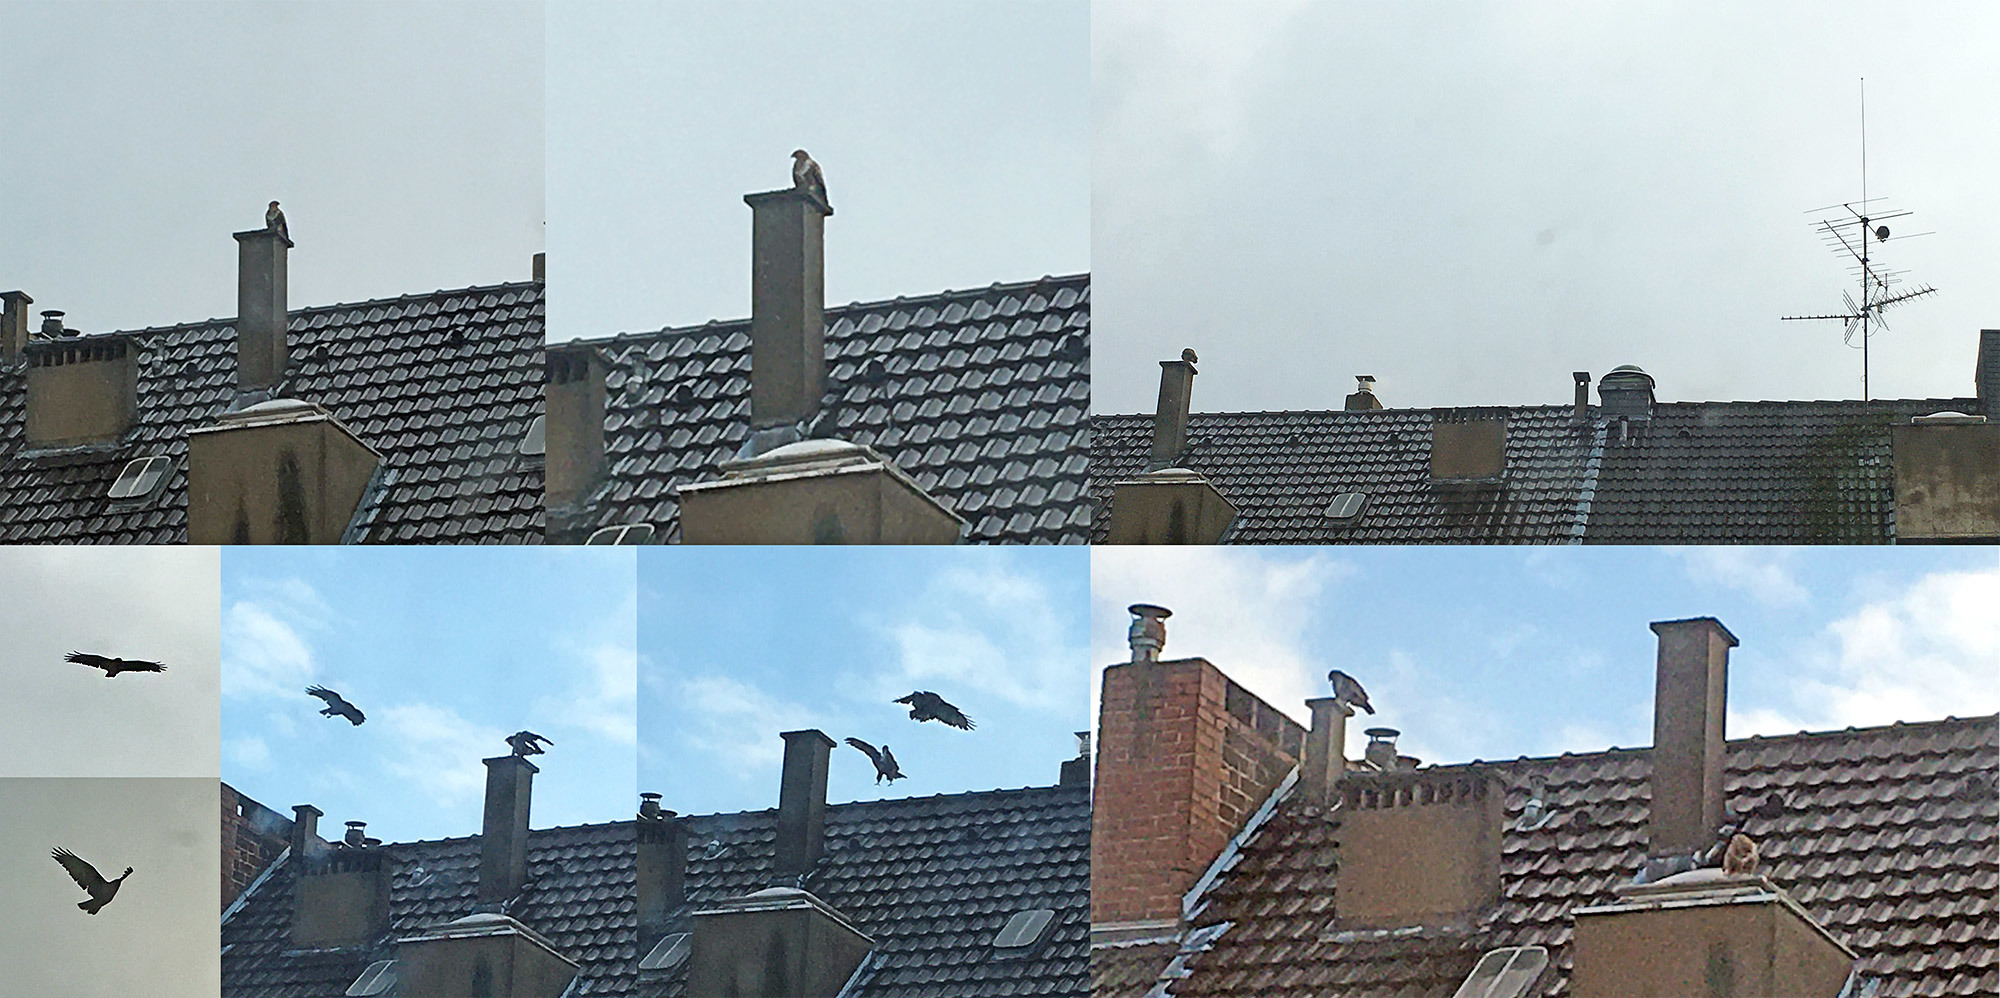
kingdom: Animalia
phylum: Chordata
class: Aves
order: Accipitriformes
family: Accipitridae
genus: Buteo
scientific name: Buteo buteo
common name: Common buzzard
